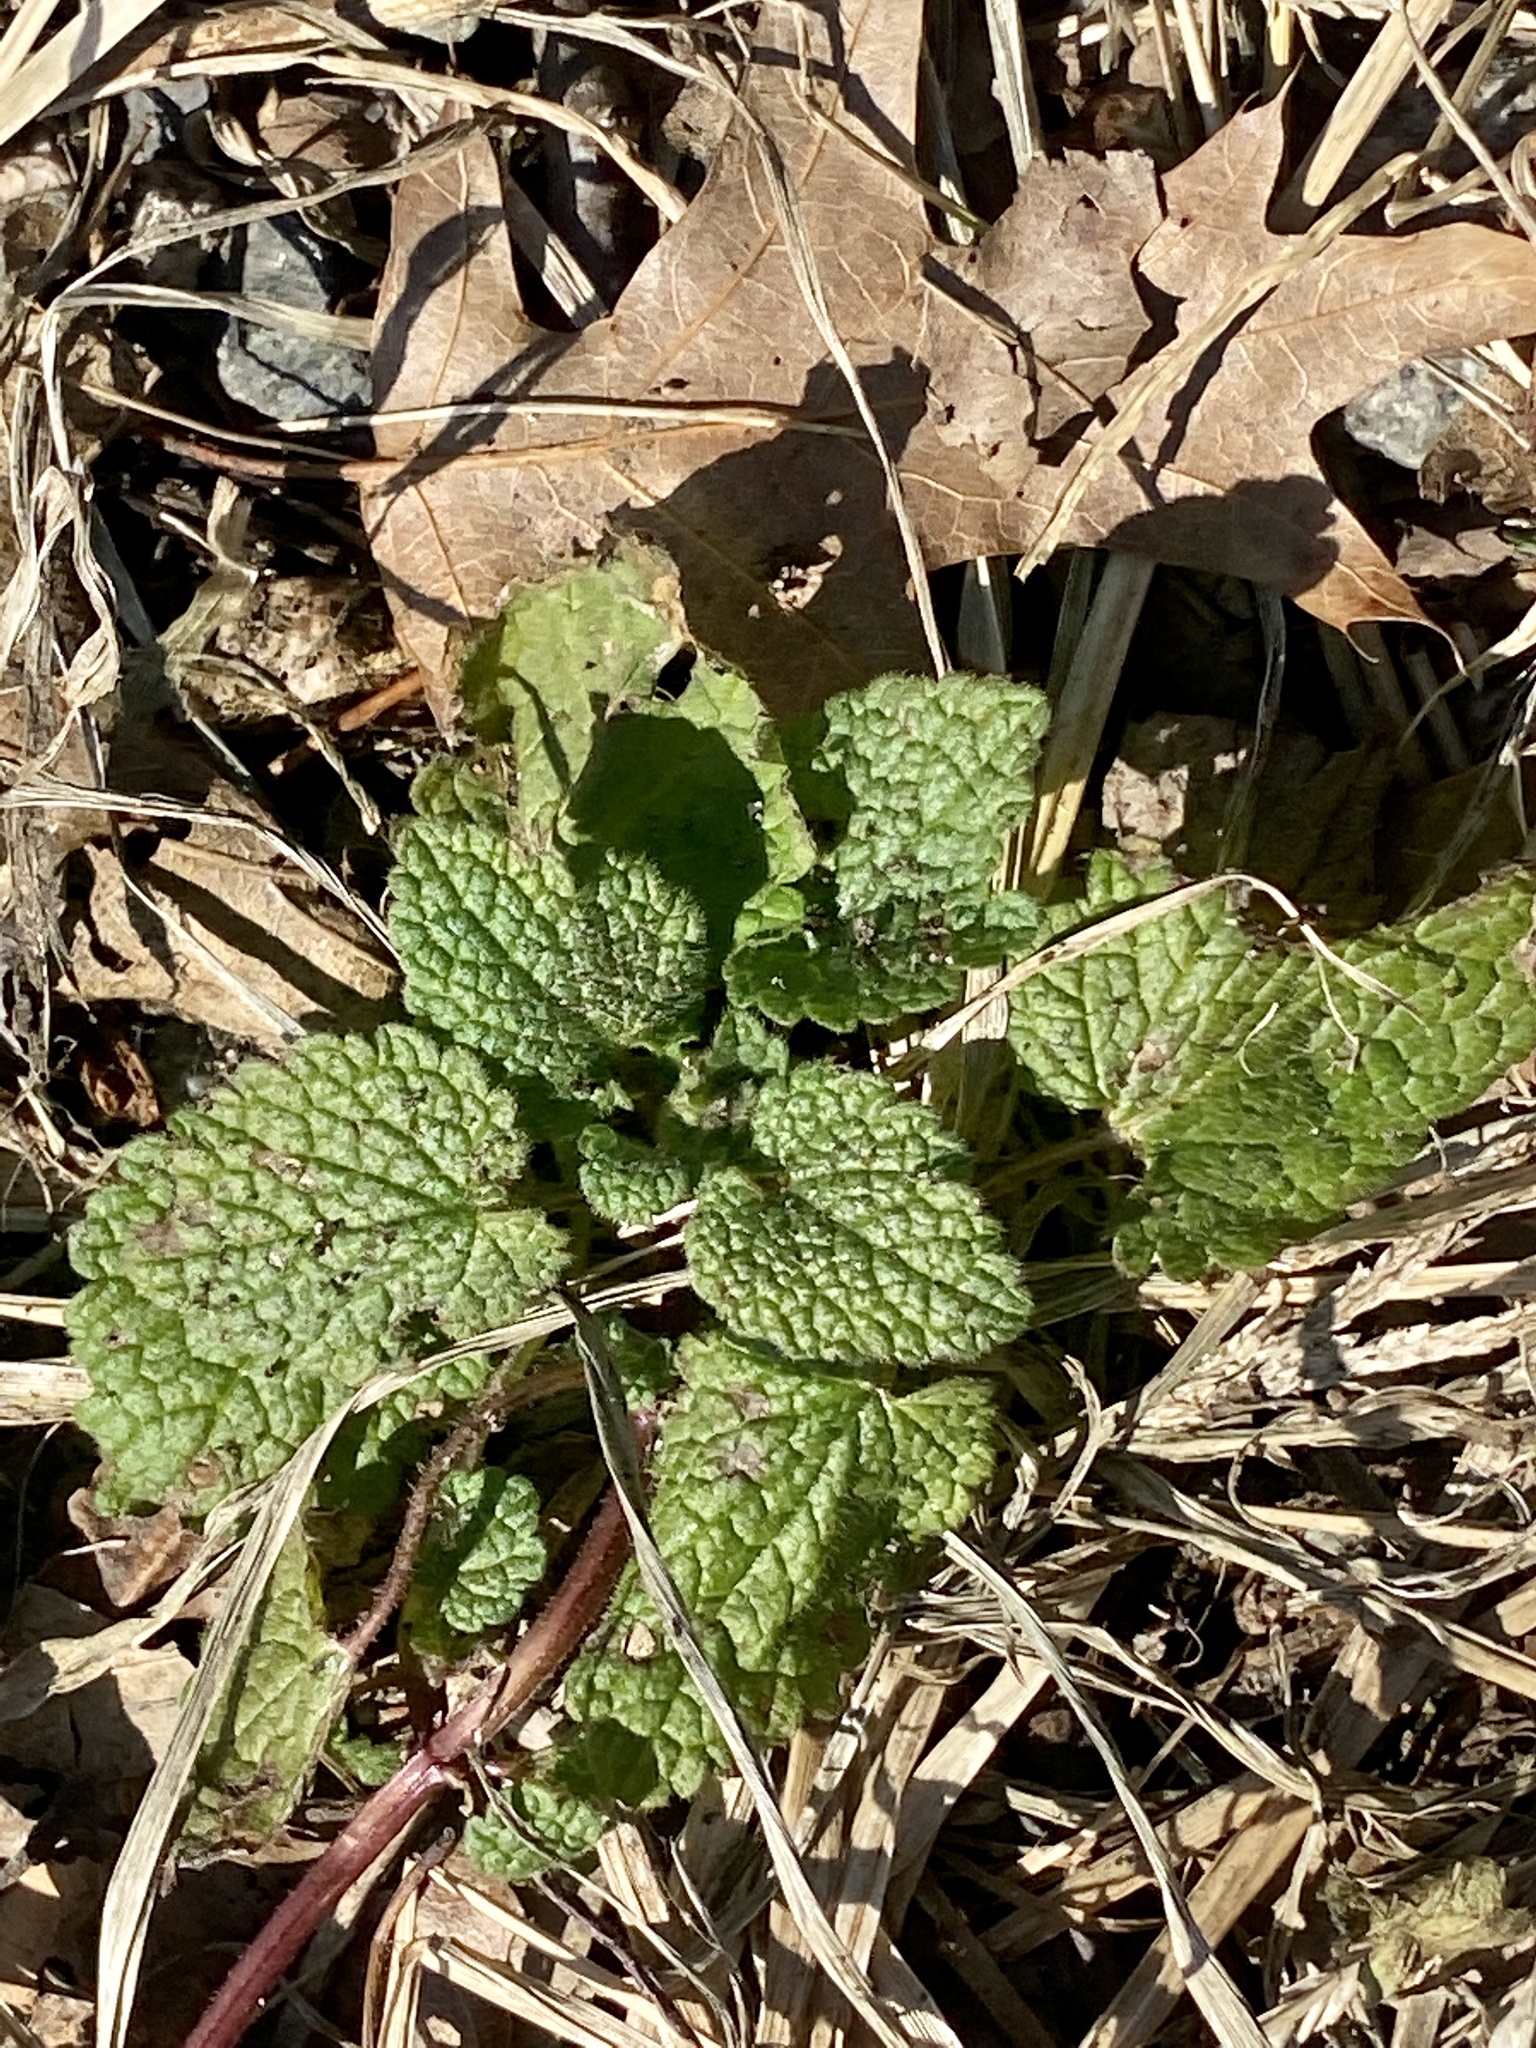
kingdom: Plantae
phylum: Tracheophyta
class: Magnoliopsida
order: Lamiales
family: Lamiaceae
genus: Lamium
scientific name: Lamium purpureum
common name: Red dead-nettle
